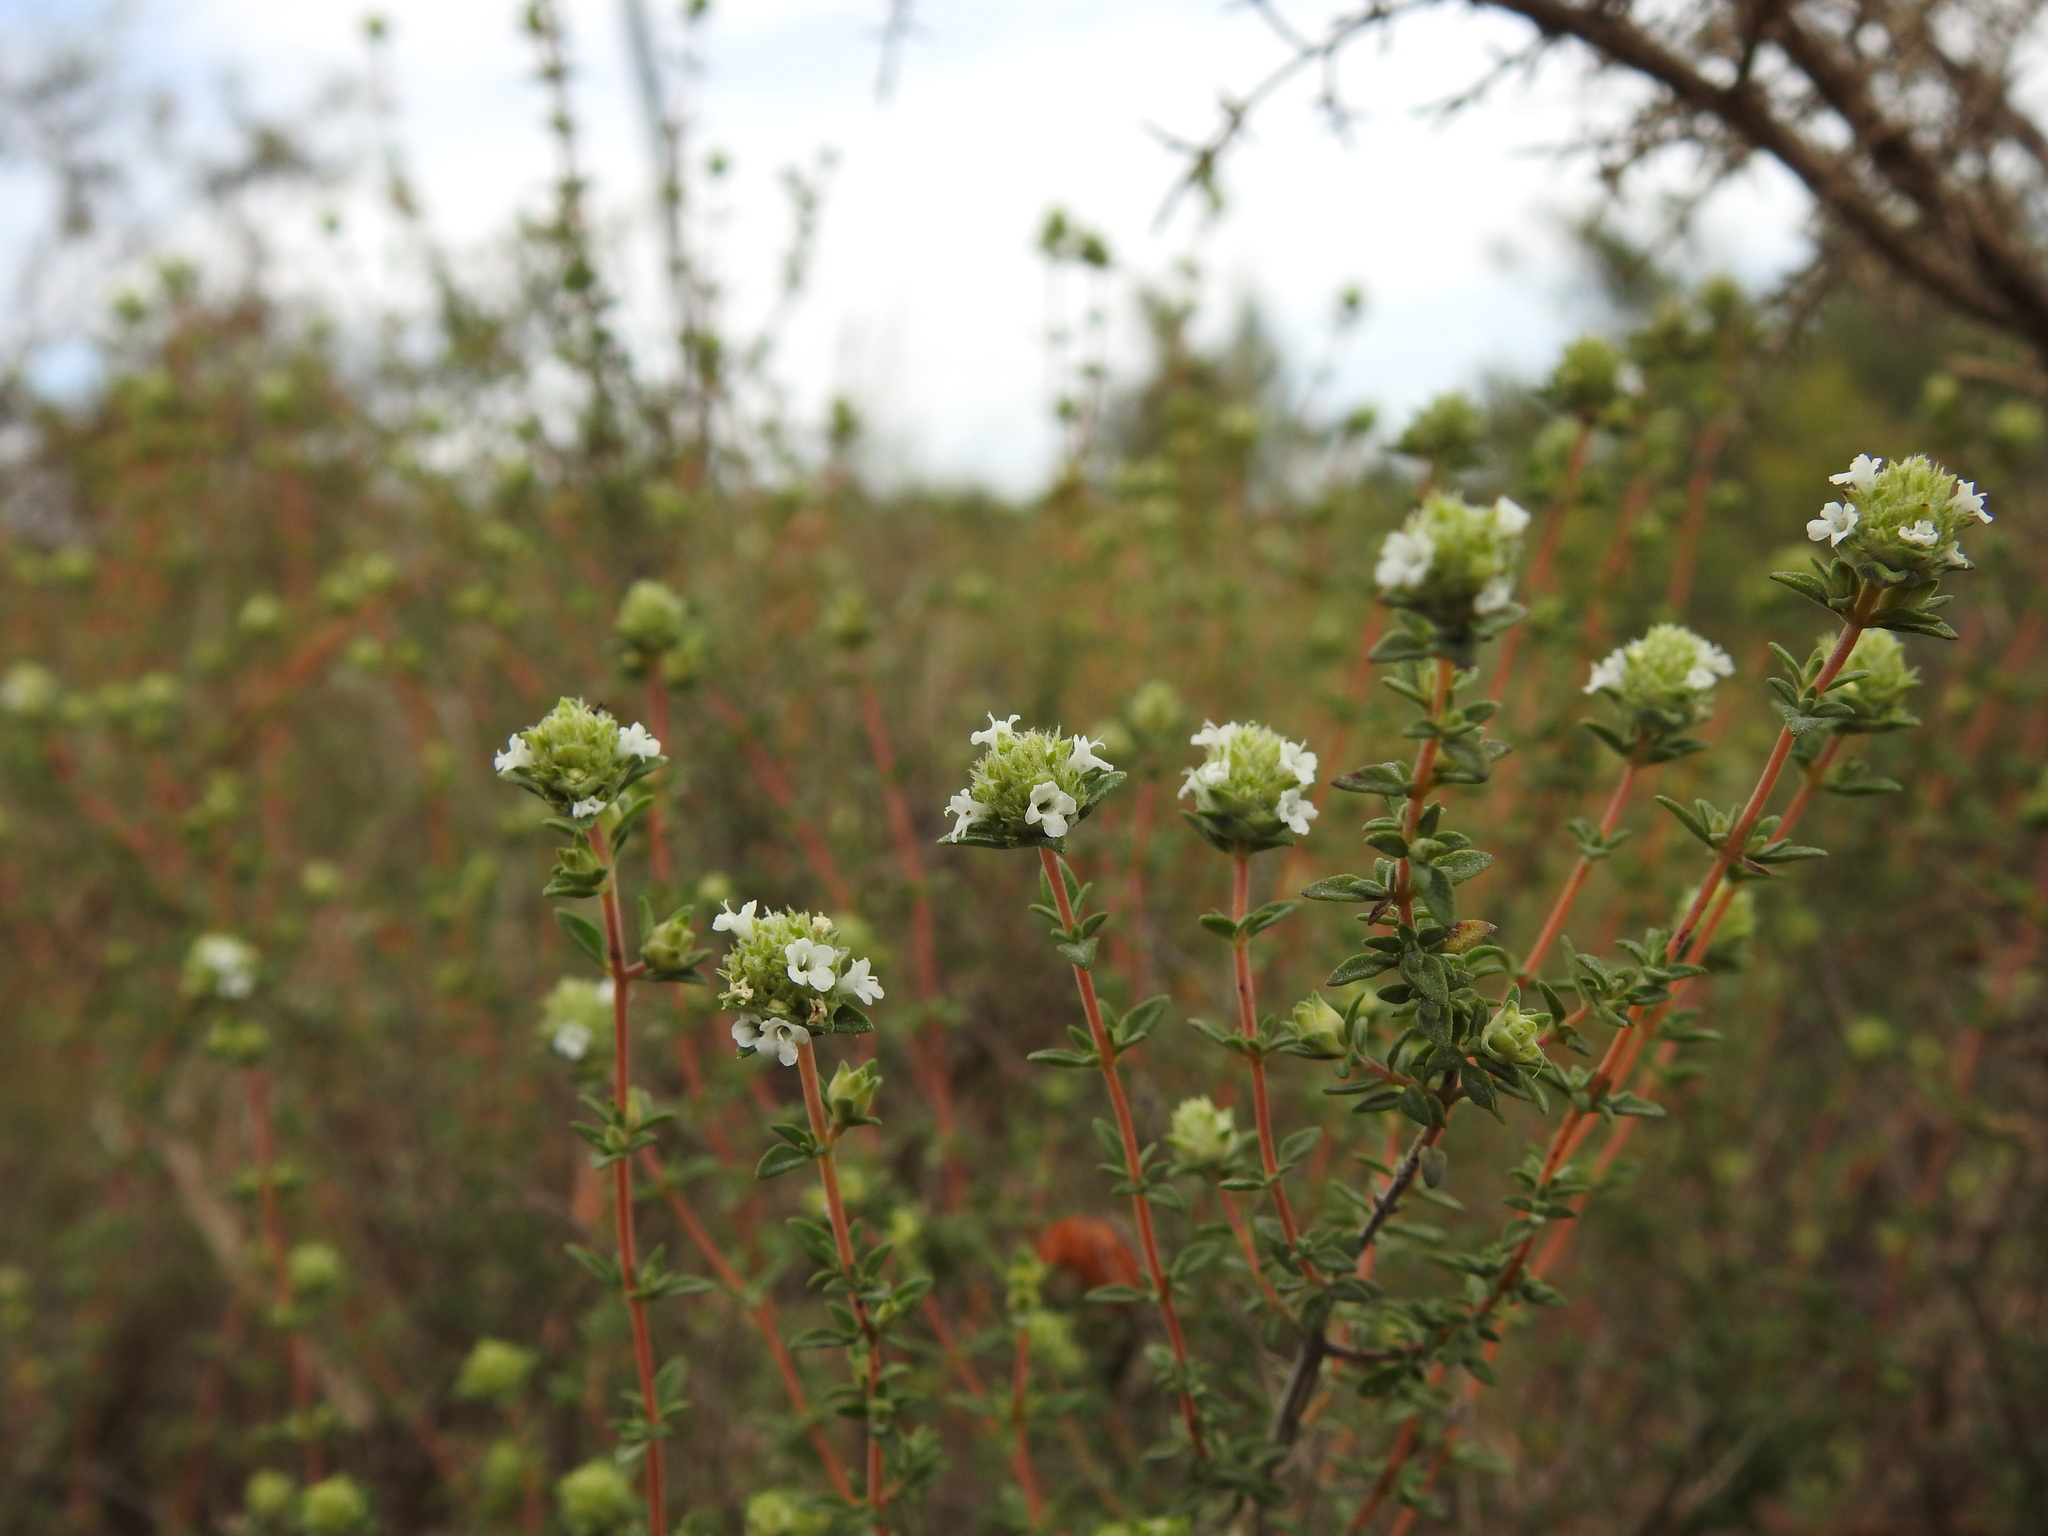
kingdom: Plantae
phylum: Tracheophyta
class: Magnoliopsida
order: Lamiales
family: Lamiaceae
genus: Thymus
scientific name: Thymus albicans
